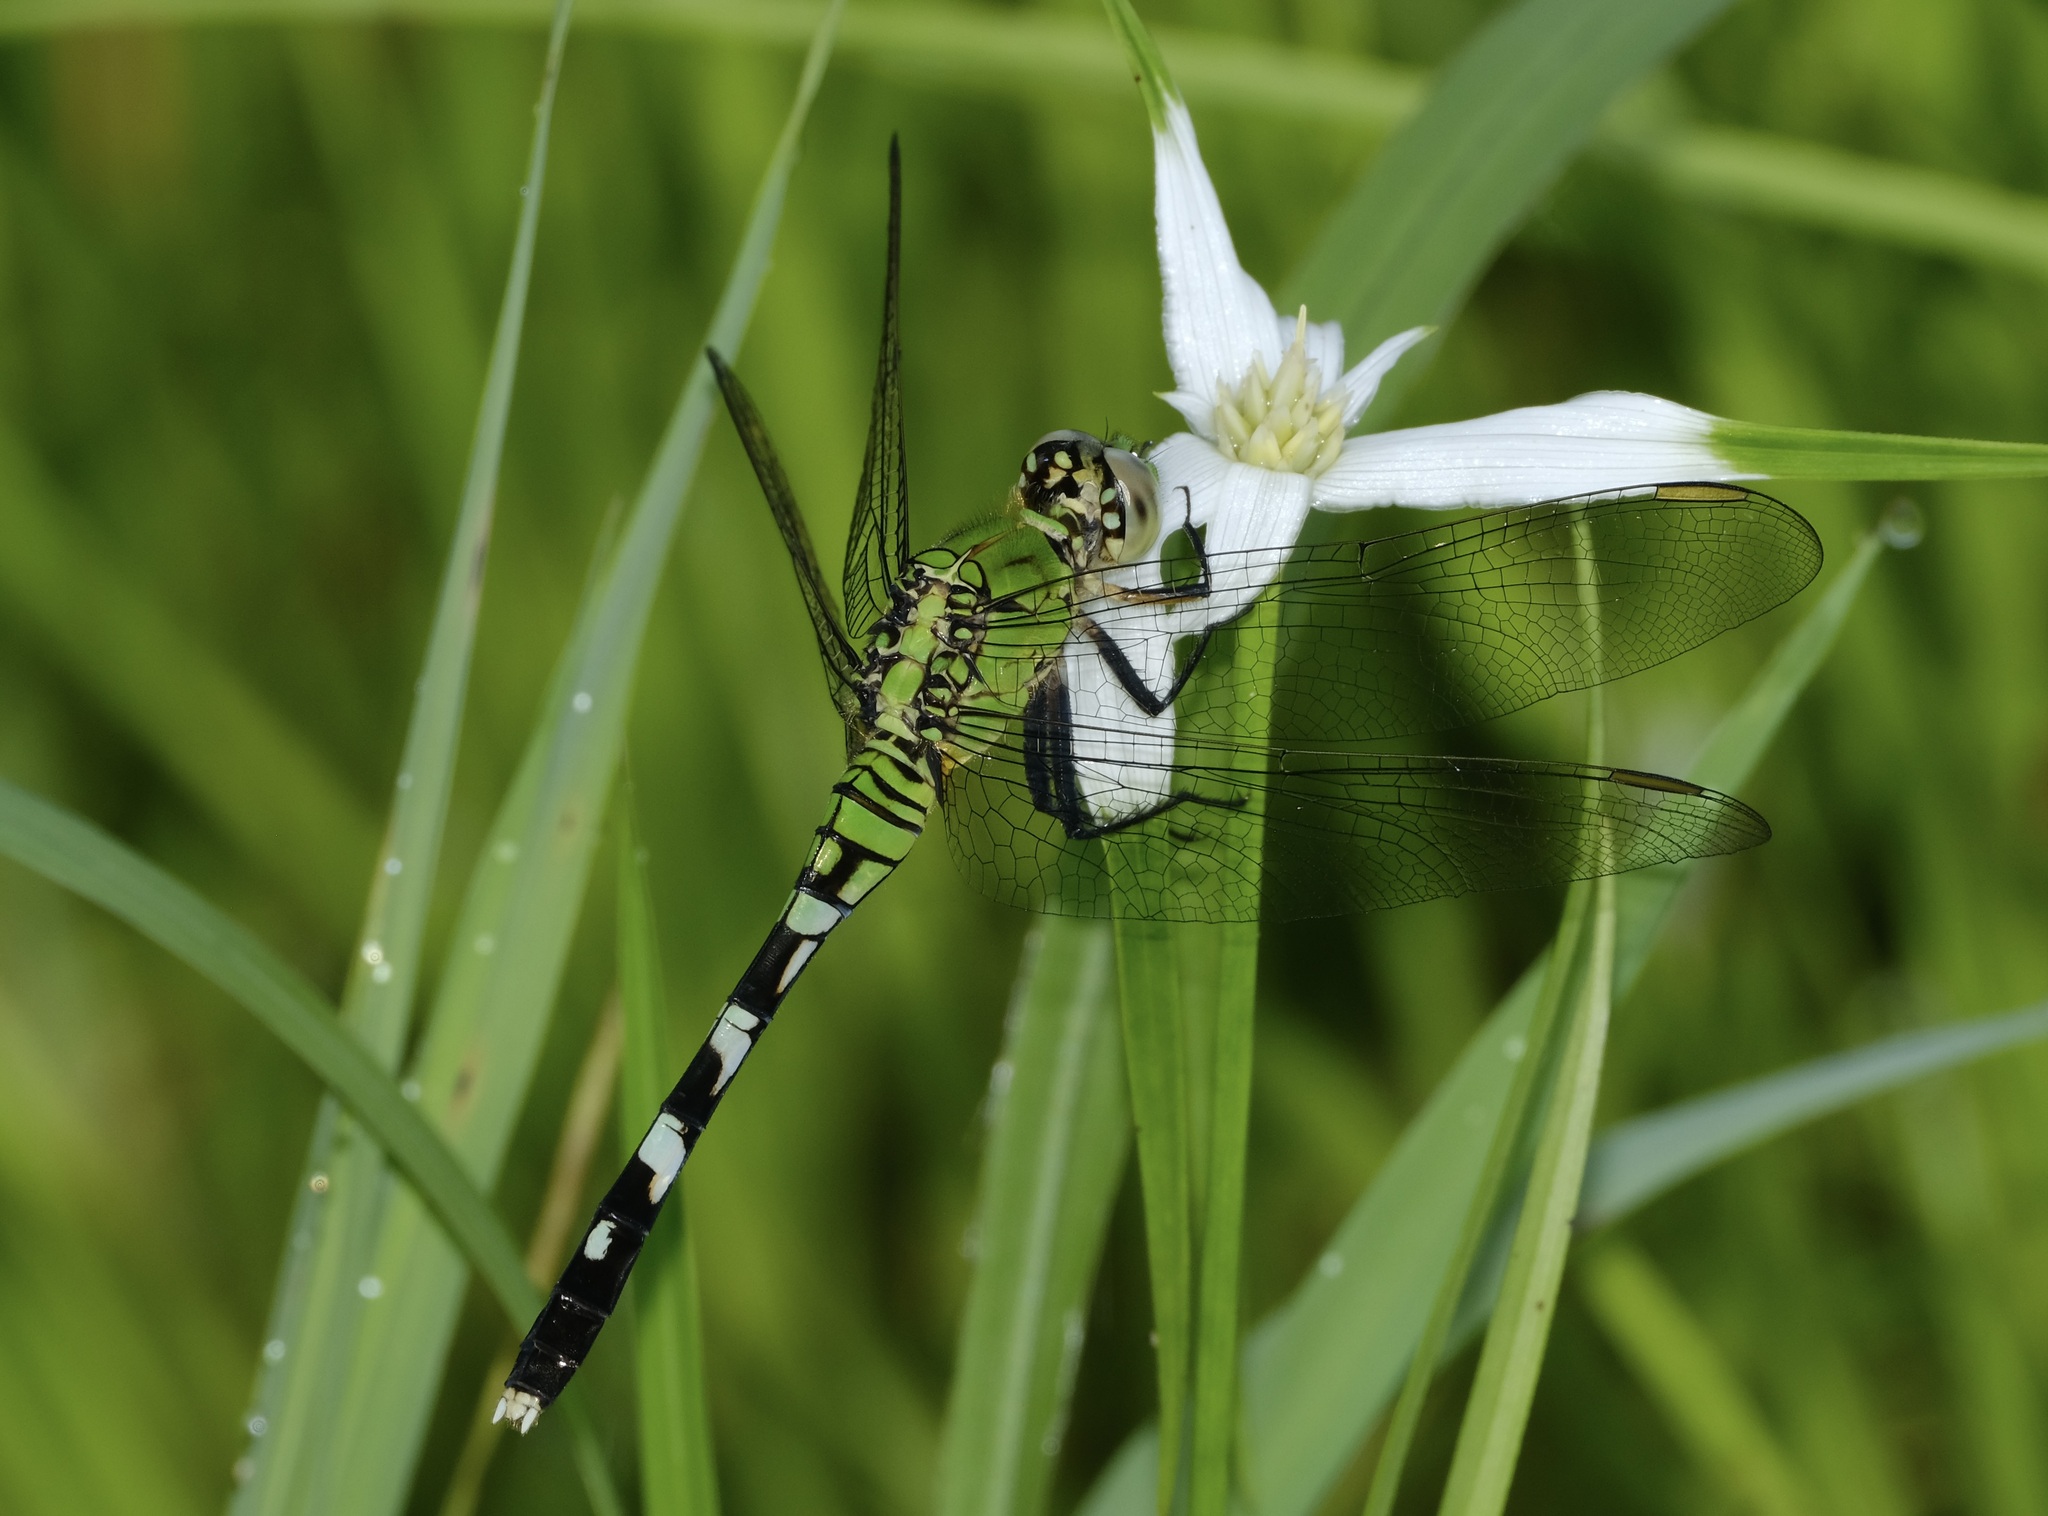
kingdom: Animalia
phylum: Arthropoda
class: Insecta
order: Odonata
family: Libellulidae
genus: Erythemis
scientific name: Erythemis simplicicollis
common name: Eastern pondhawk
